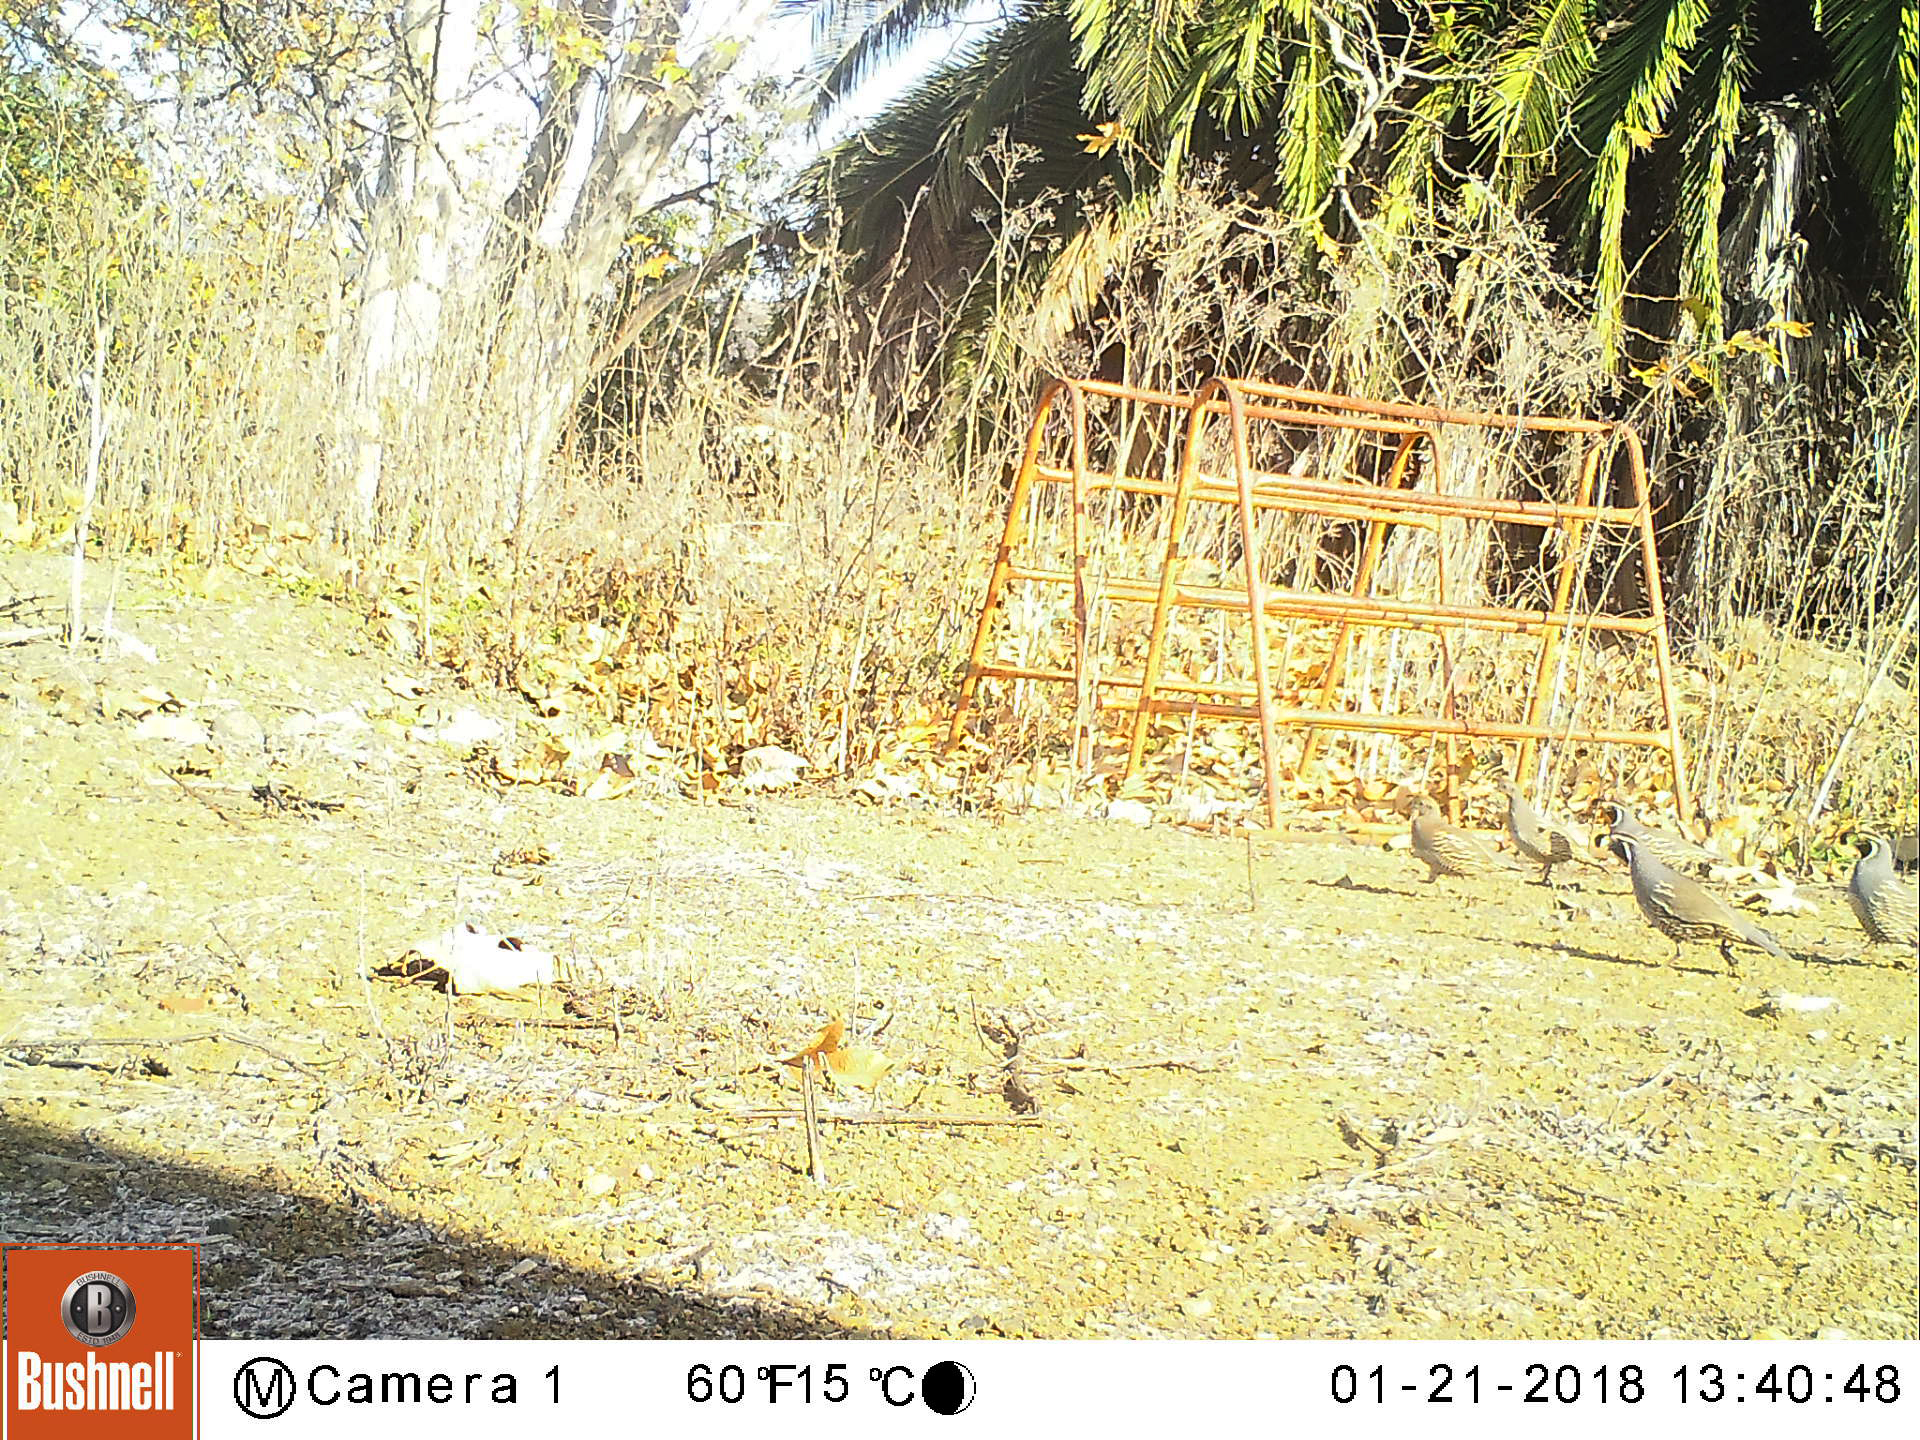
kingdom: Animalia
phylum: Chordata
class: Aves
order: Galliformes
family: Odontophoridae
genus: Callipepla
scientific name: Callipepla californica
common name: California quail
